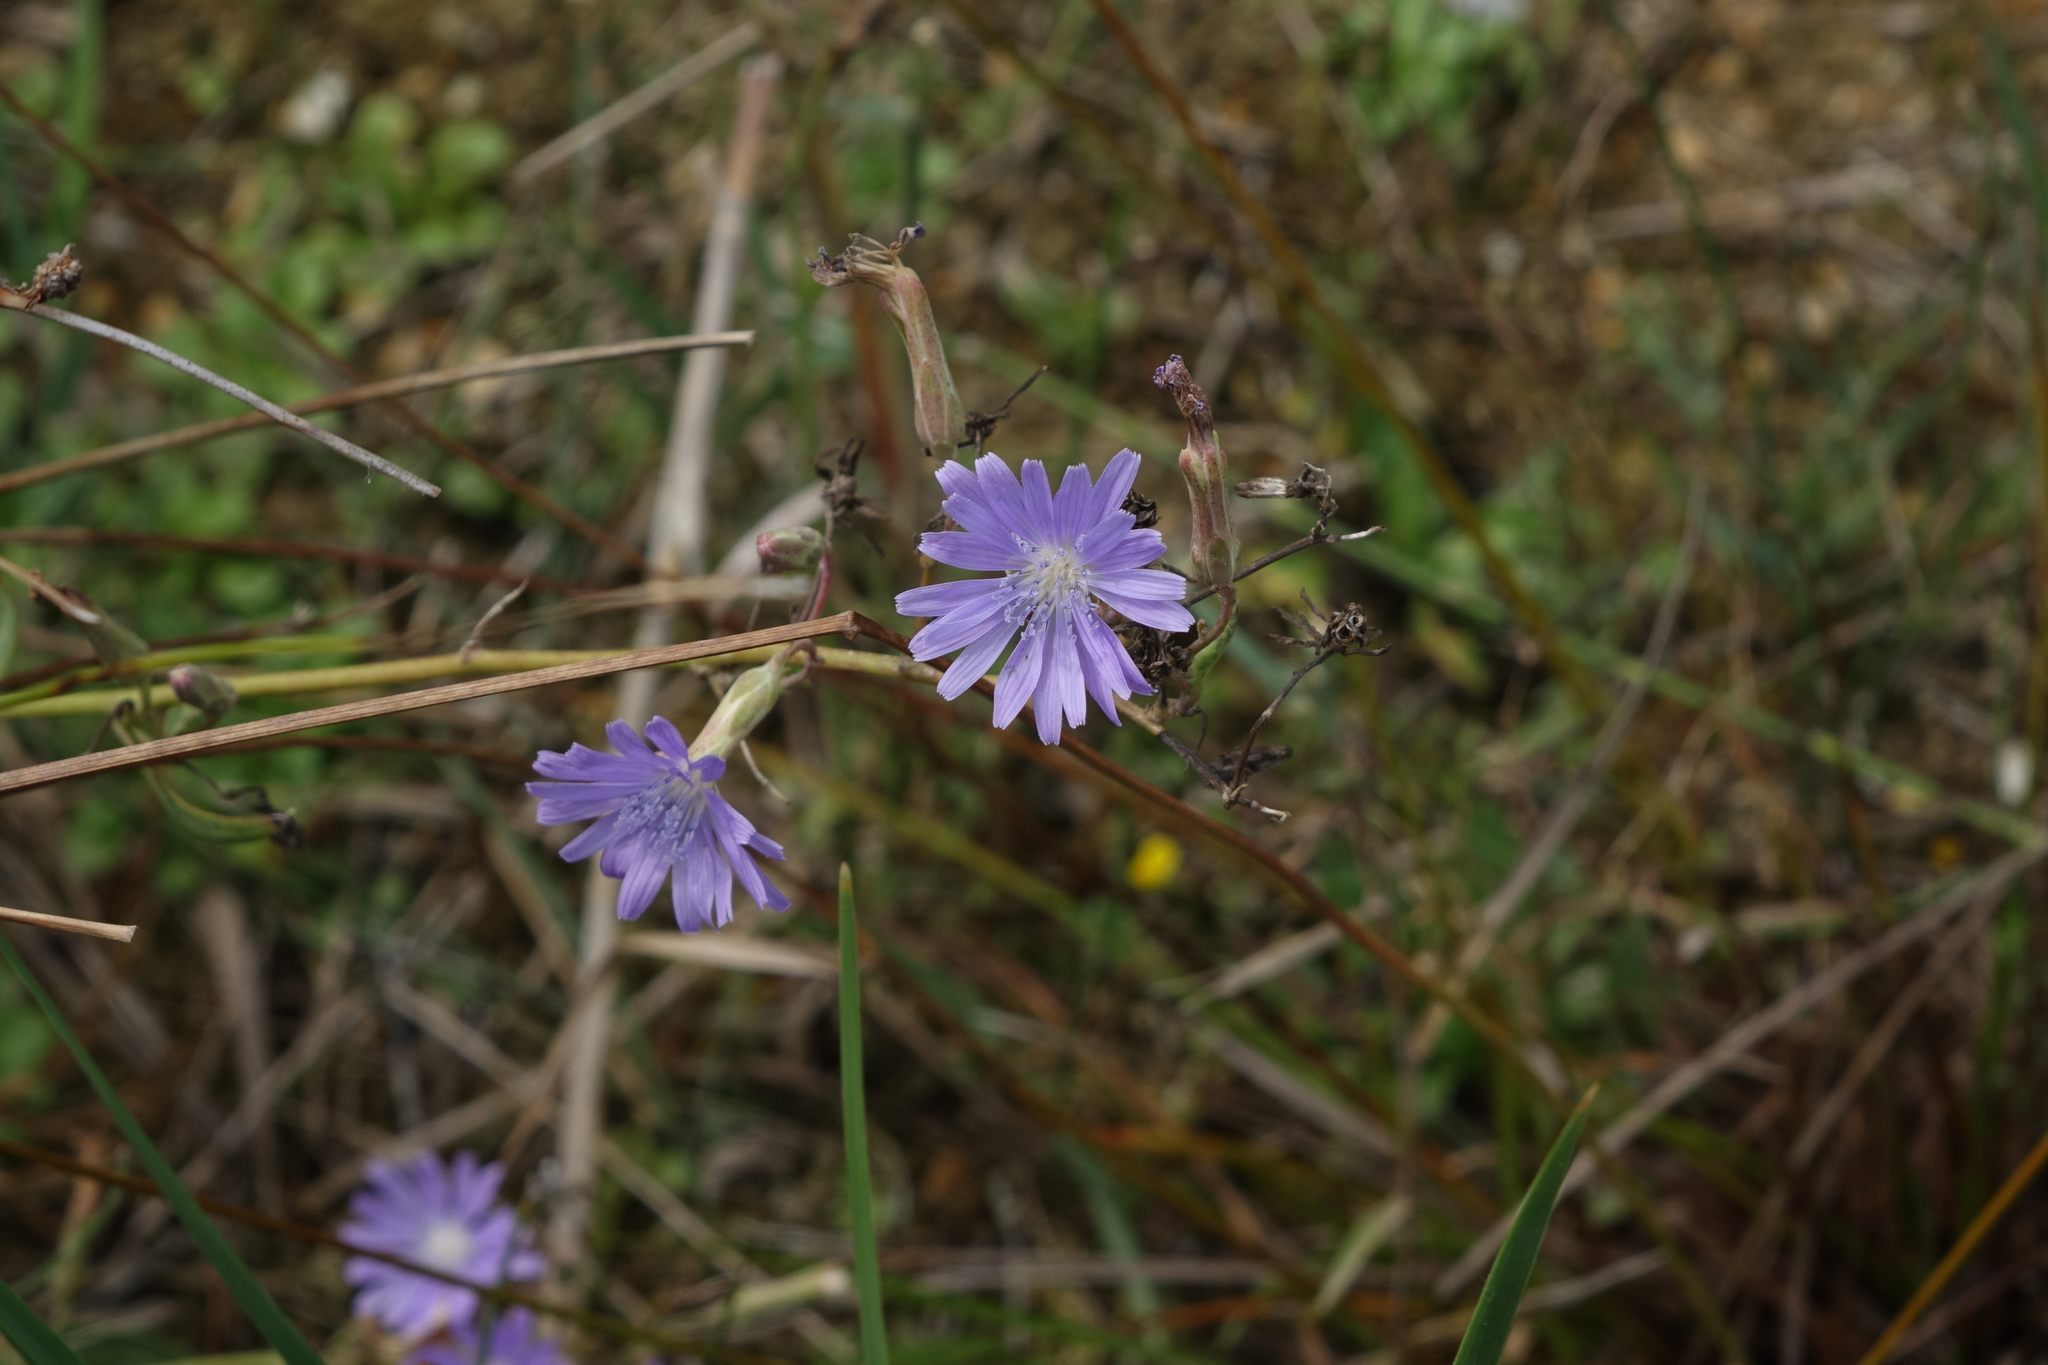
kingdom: Plantae
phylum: Tracheophyta
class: Magnoliopsida
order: Asterales
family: Asteraceae
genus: Lactuca
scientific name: Lactuca tatarica
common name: Blue lettuce
